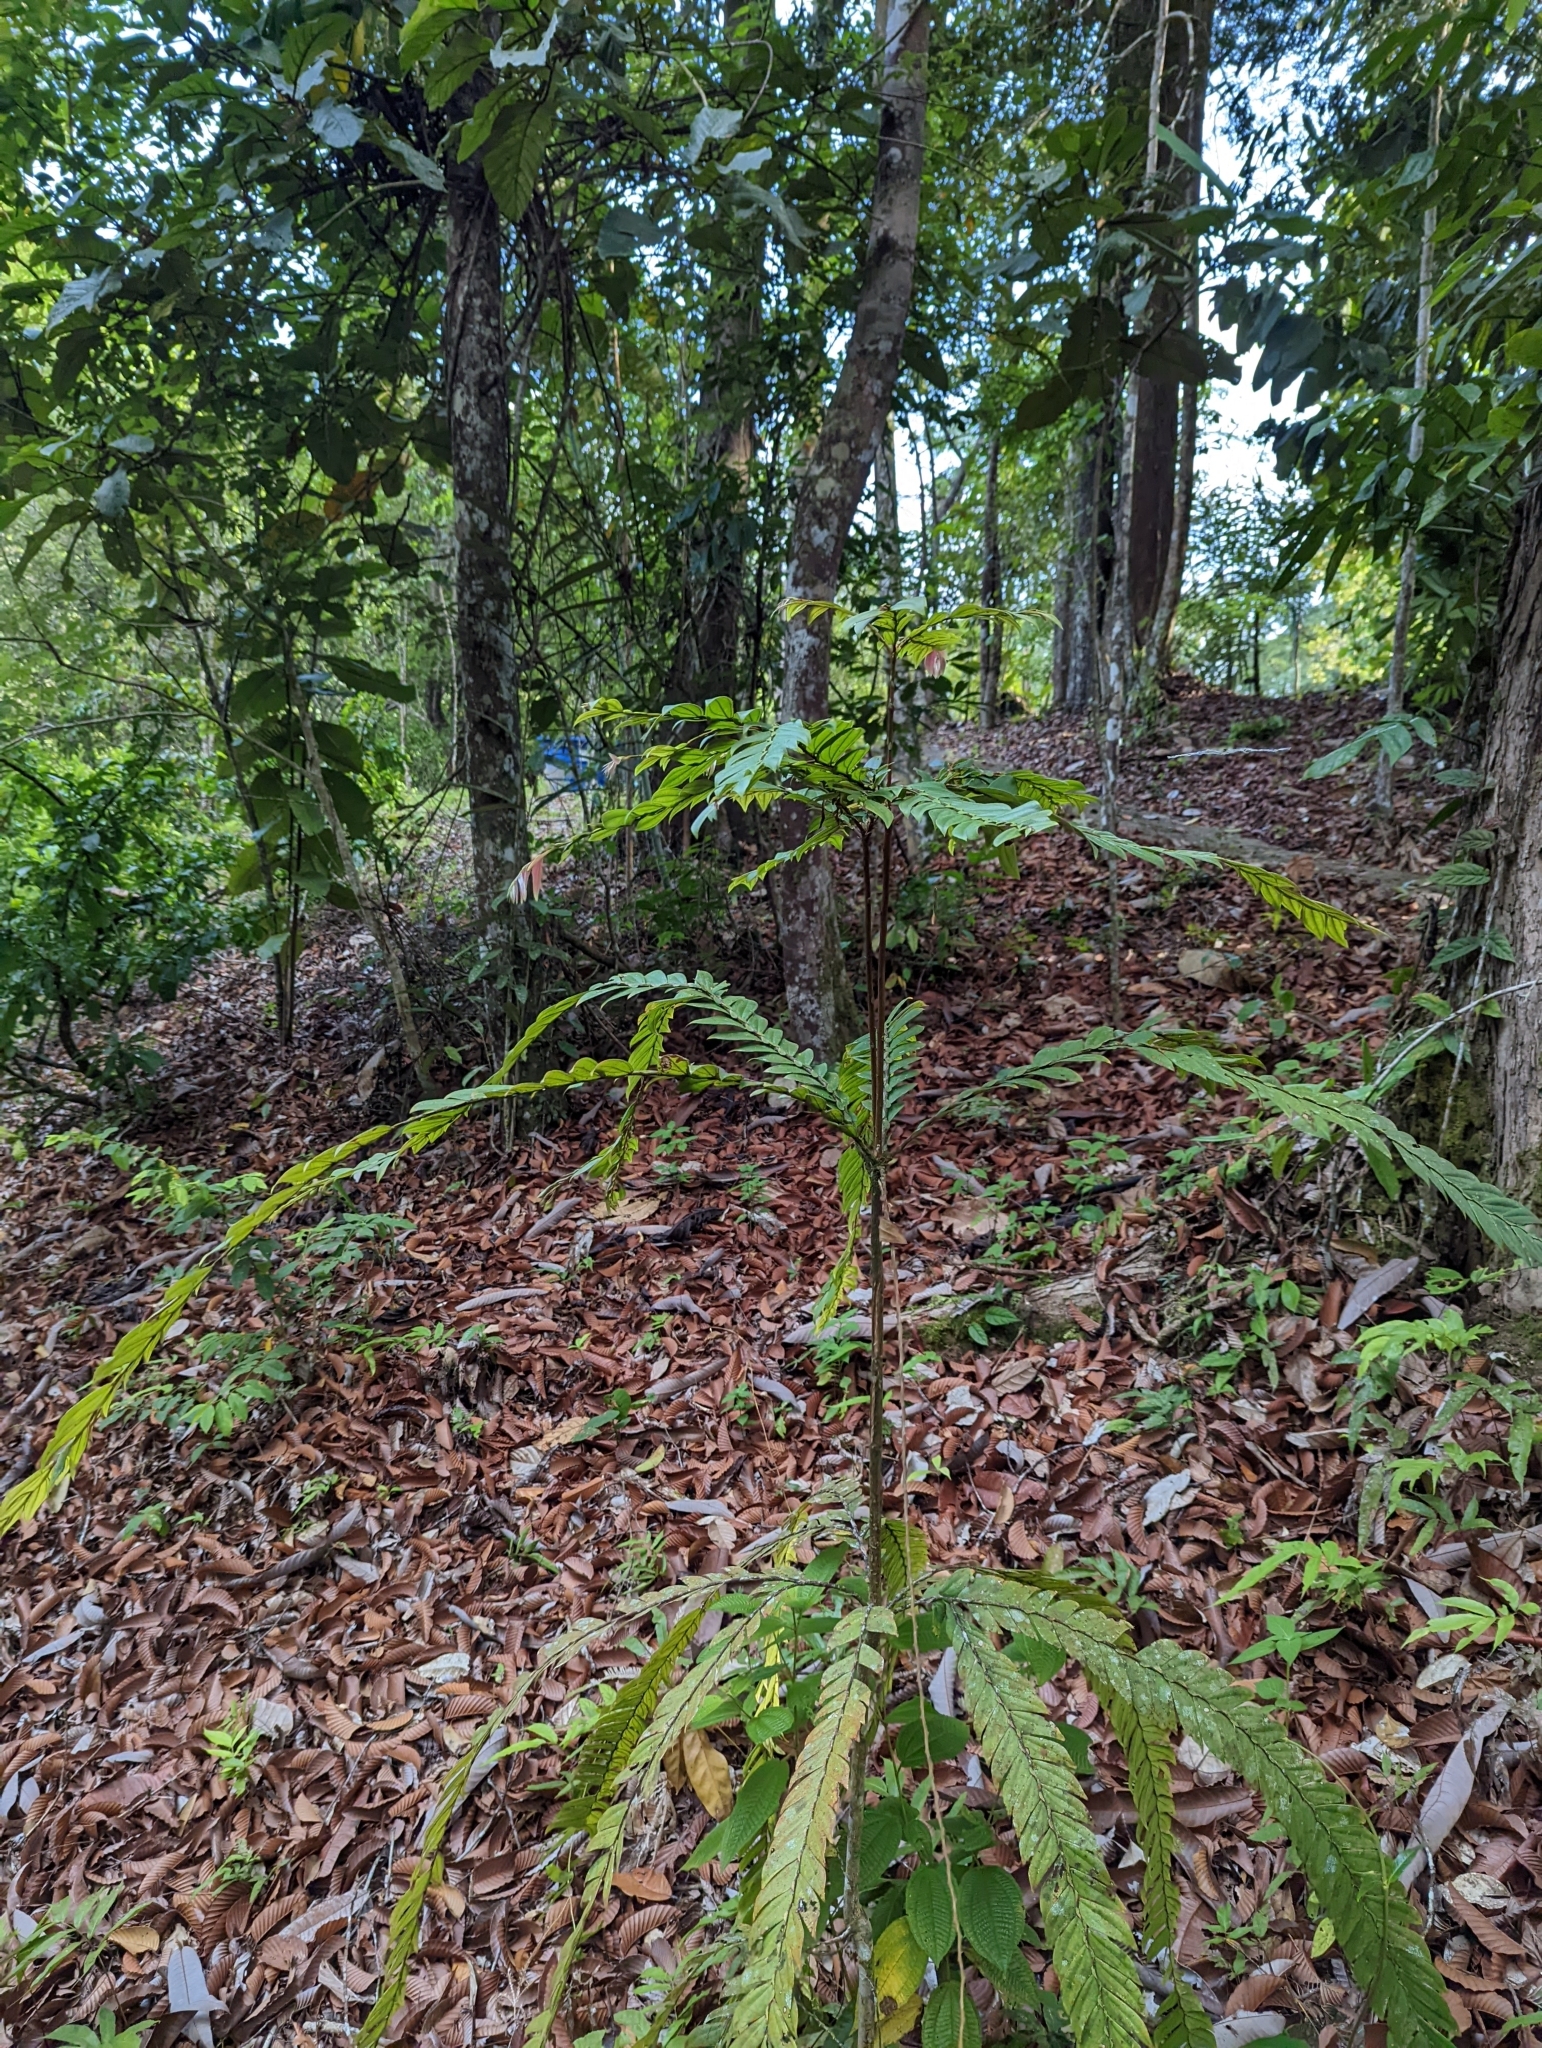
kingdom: Plantae
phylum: Tracheophyta
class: Magnoliopsida
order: Cucurbitales
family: Anisophylleaceae
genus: Anisophyllea
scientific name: Anisophyllea disticha
